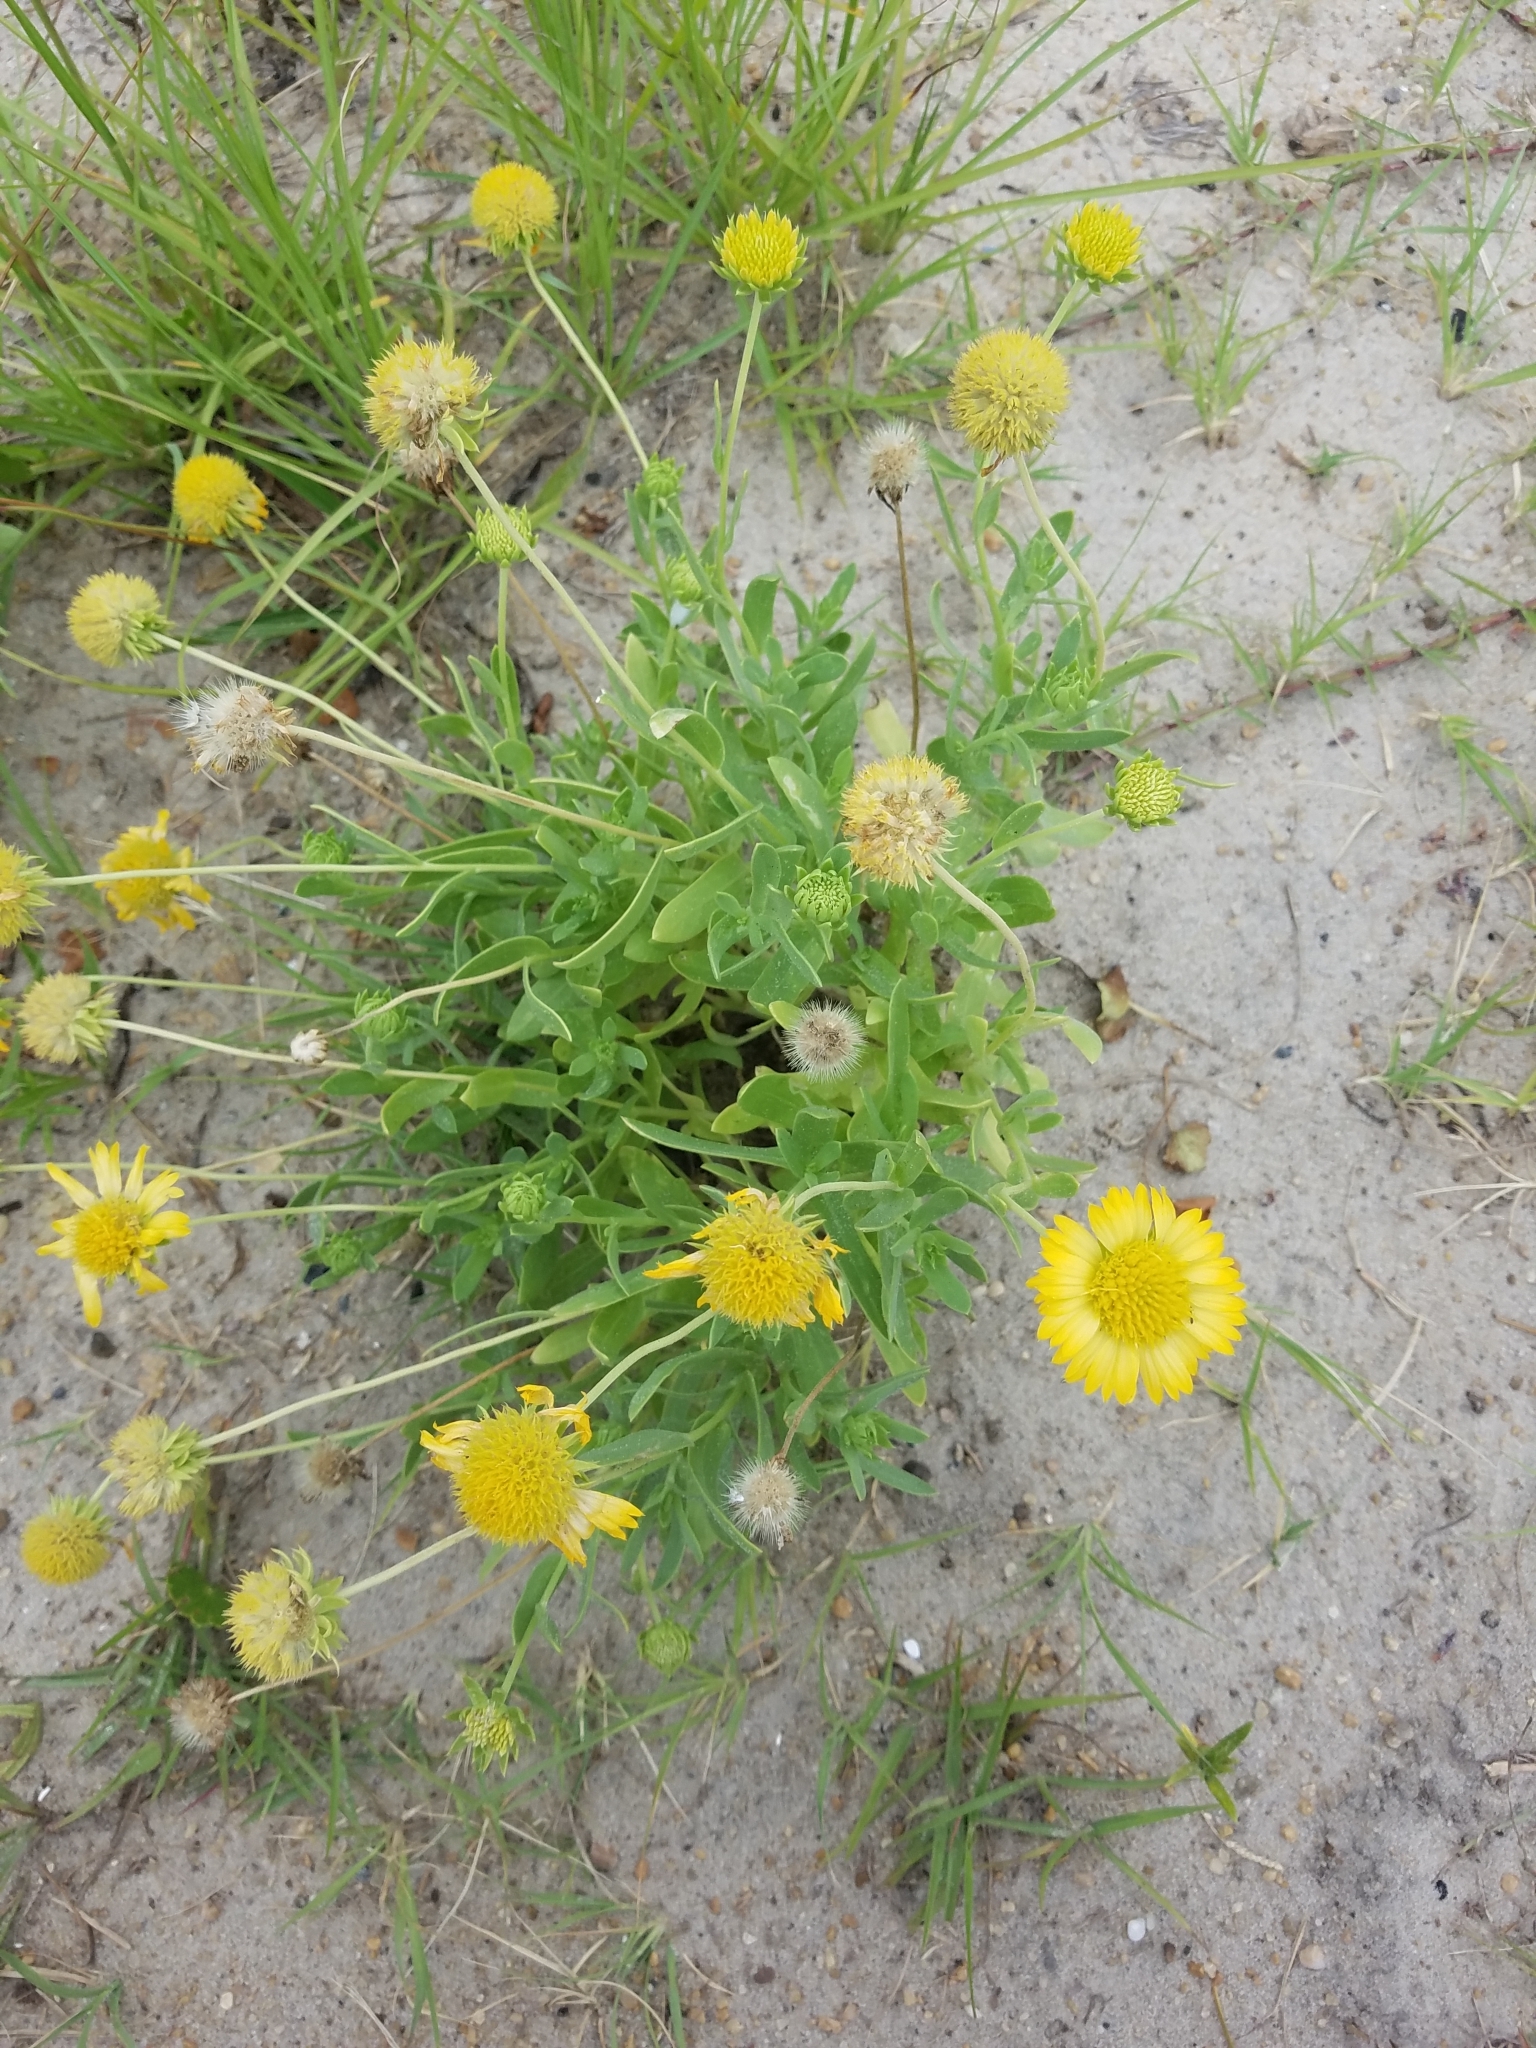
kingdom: Plantae
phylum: Tracheophyta
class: Magnoliopsida
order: Asterales
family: Asteraceae
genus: Gaillardia
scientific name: Gaillardia pulchella
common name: Firewheel
